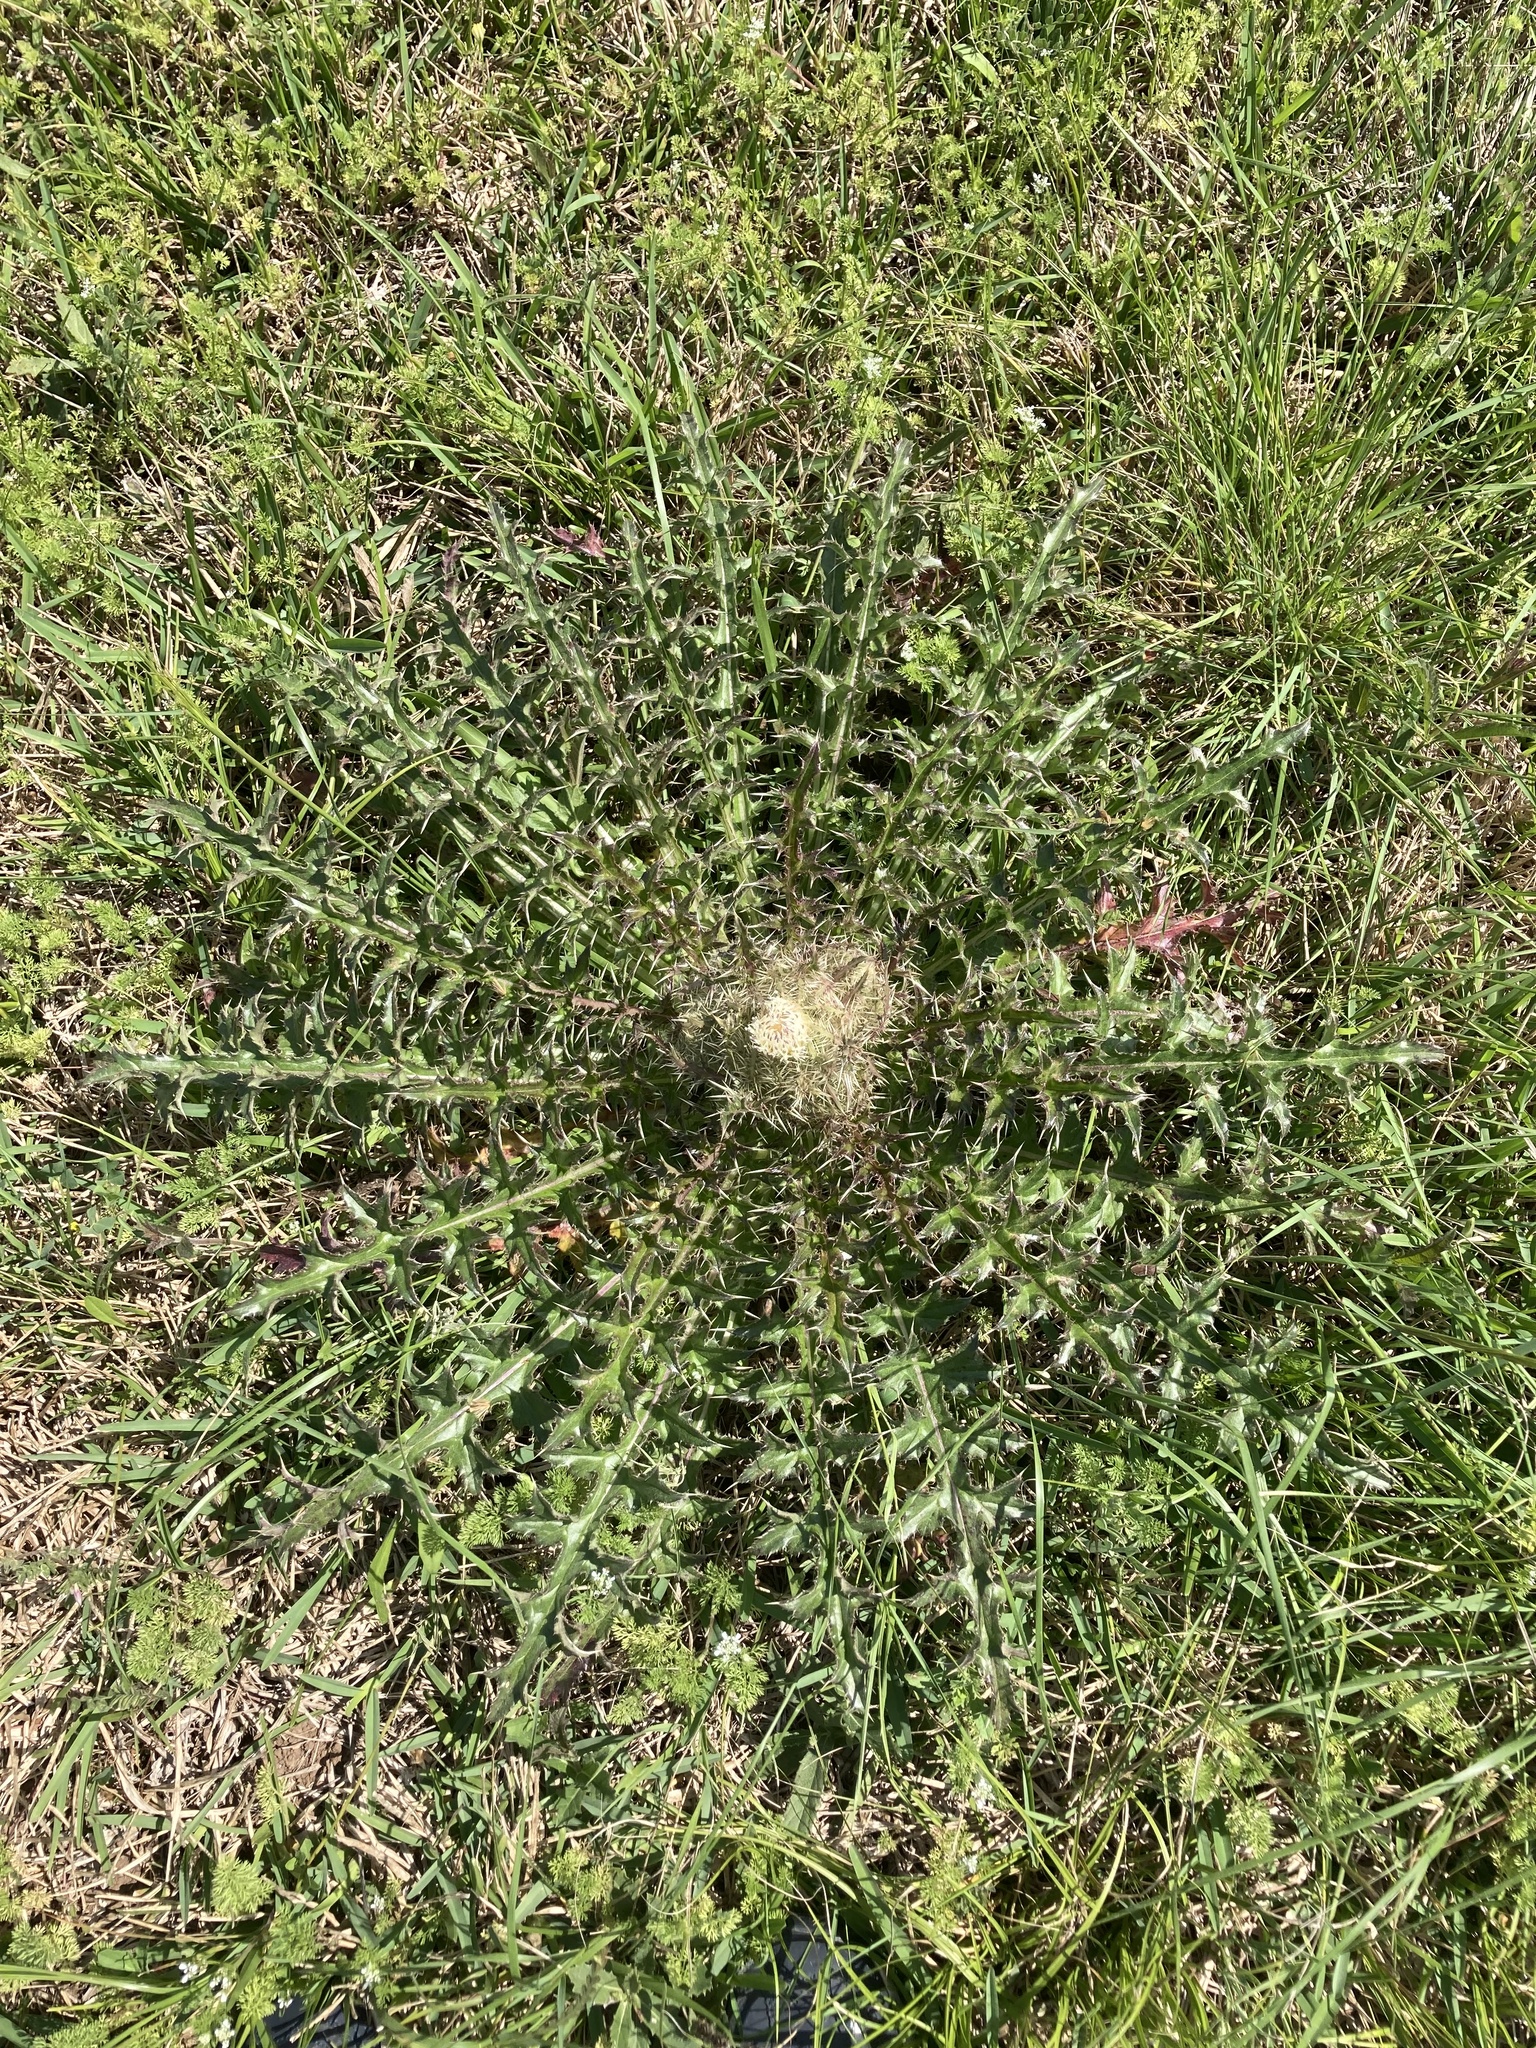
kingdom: Plantae
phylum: Tracheophyta
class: Magnoliopsida
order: Asterales
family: Asteraceae
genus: Cirsium
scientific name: Cirsium horridulum
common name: Bristly thistle
